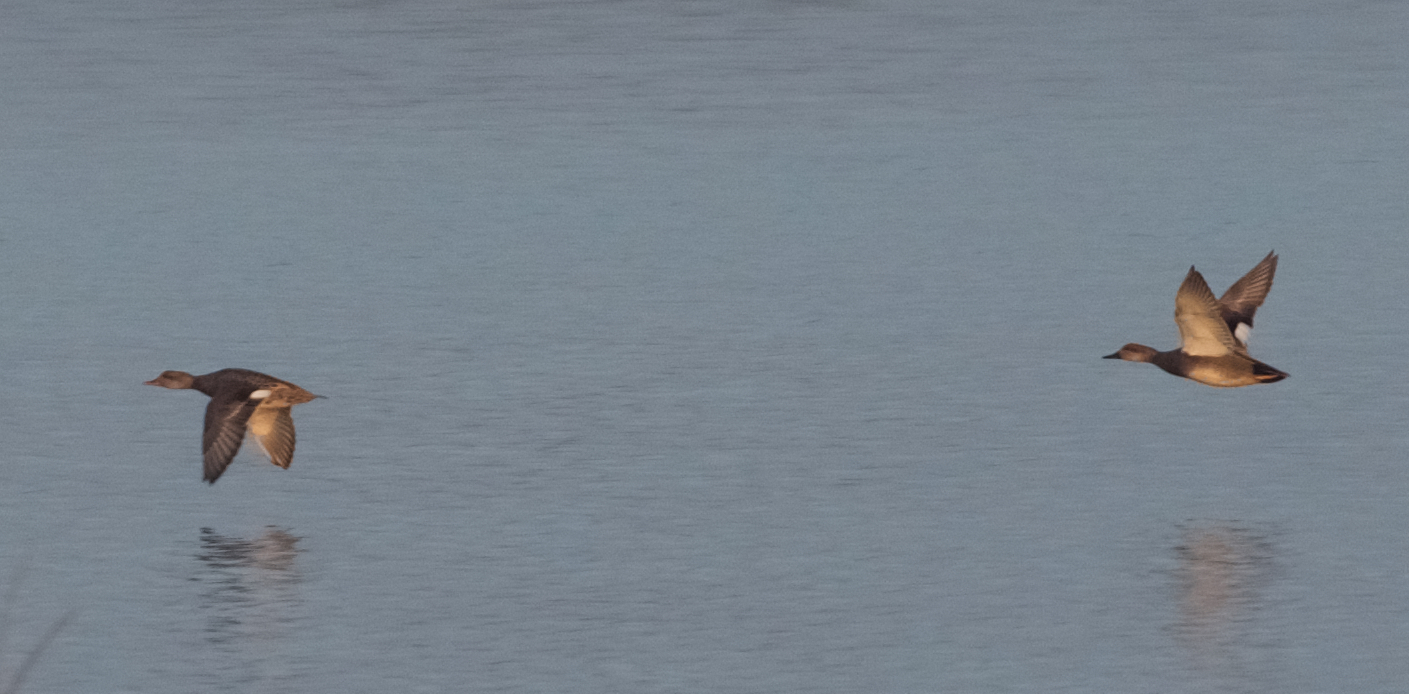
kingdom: Animalia
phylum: Chordata
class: Aves
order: Anseriformes
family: Anatidae
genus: Mareca
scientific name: Mareca strepera
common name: Gadwall
